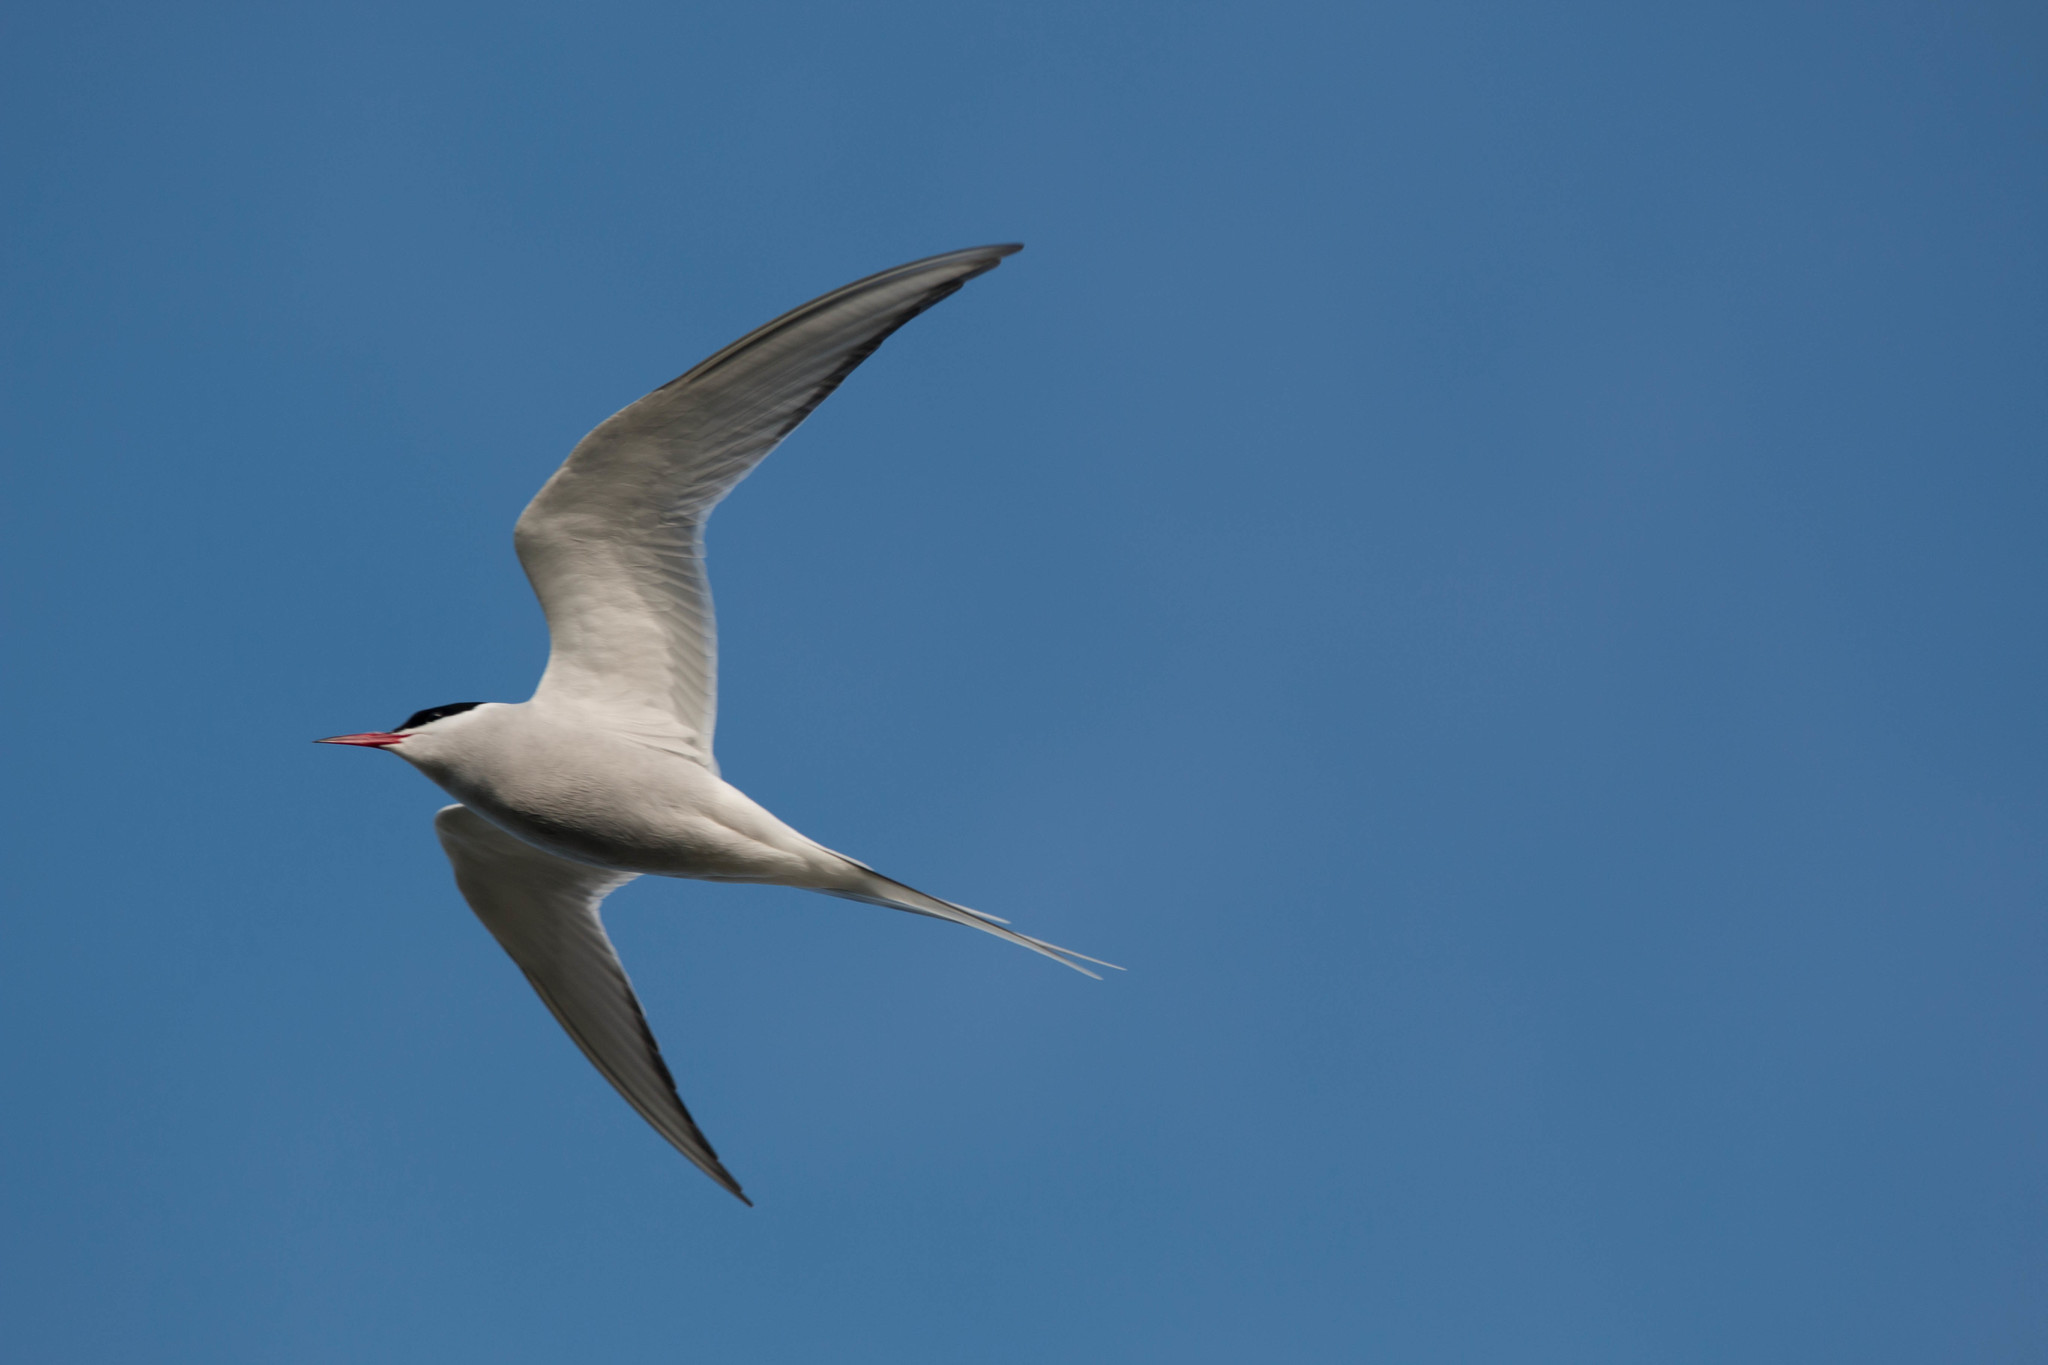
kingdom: Animalia
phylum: Chordata
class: Aves
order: Charadriiformes
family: Laridae
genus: Sterna
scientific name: Sterna paradisaea
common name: Arctic tern
